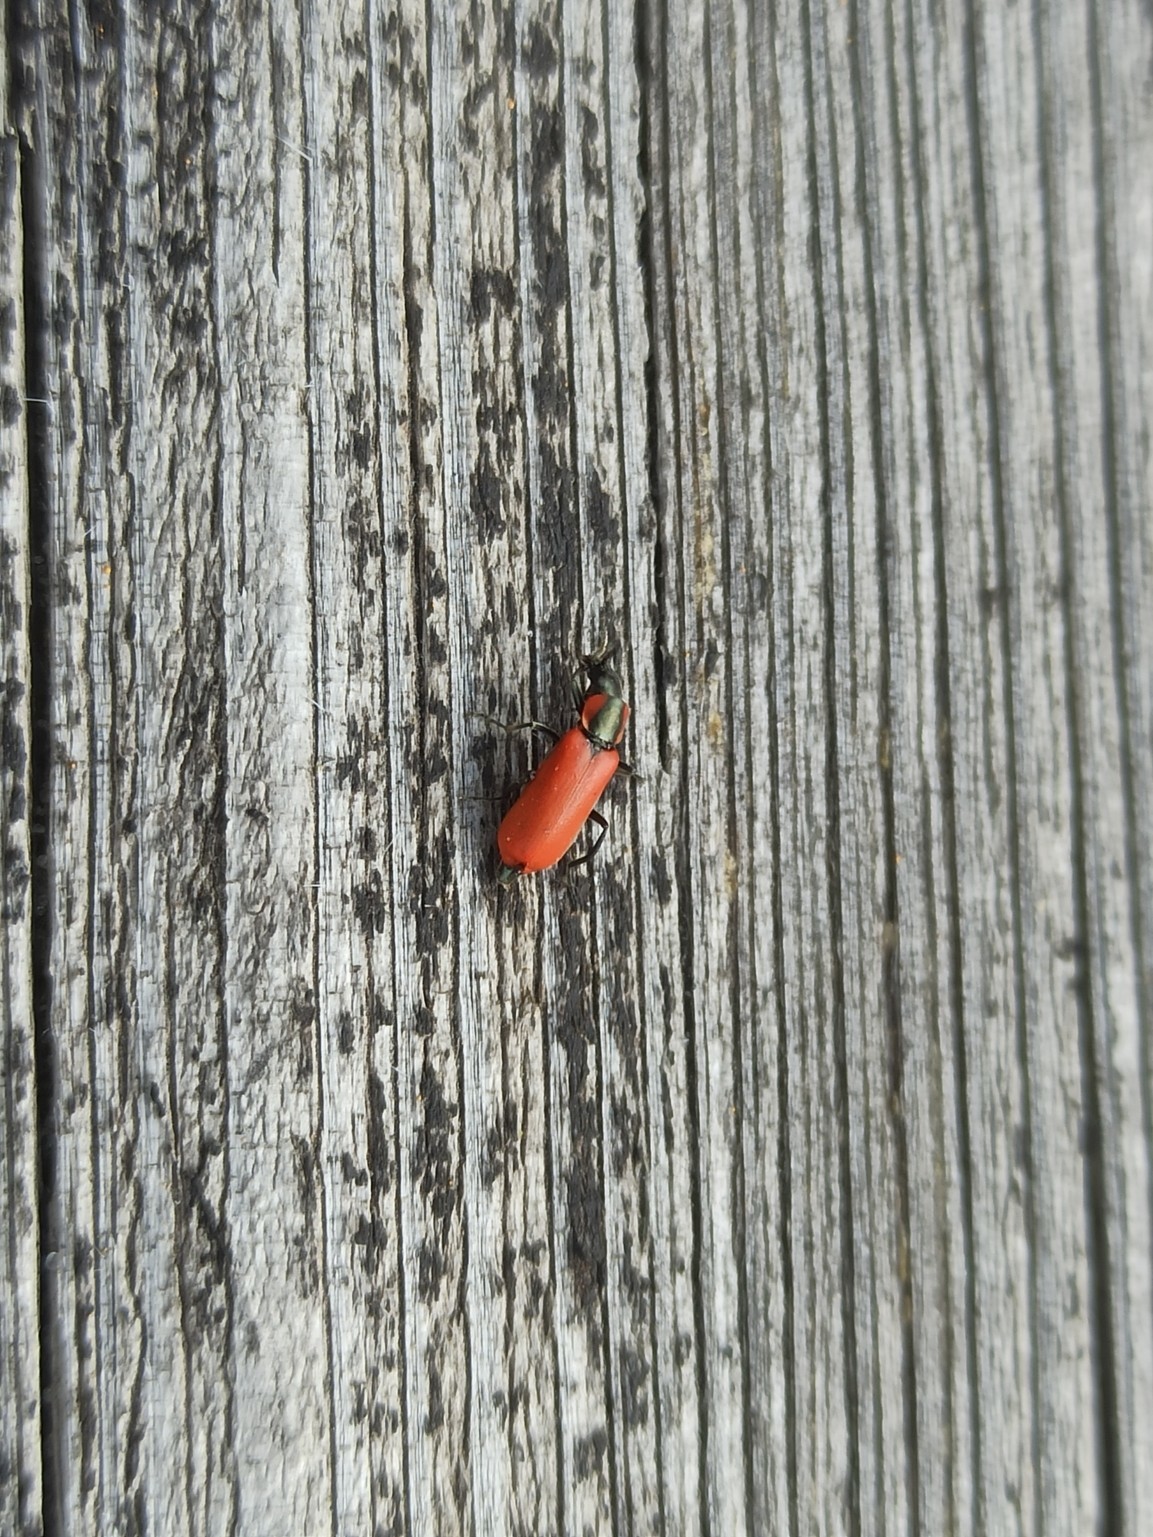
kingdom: Animalia
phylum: Arthropoda
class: Insecta
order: Coleoptera
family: Melyridae
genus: Anthocomus
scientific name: Anthocomus rufus
